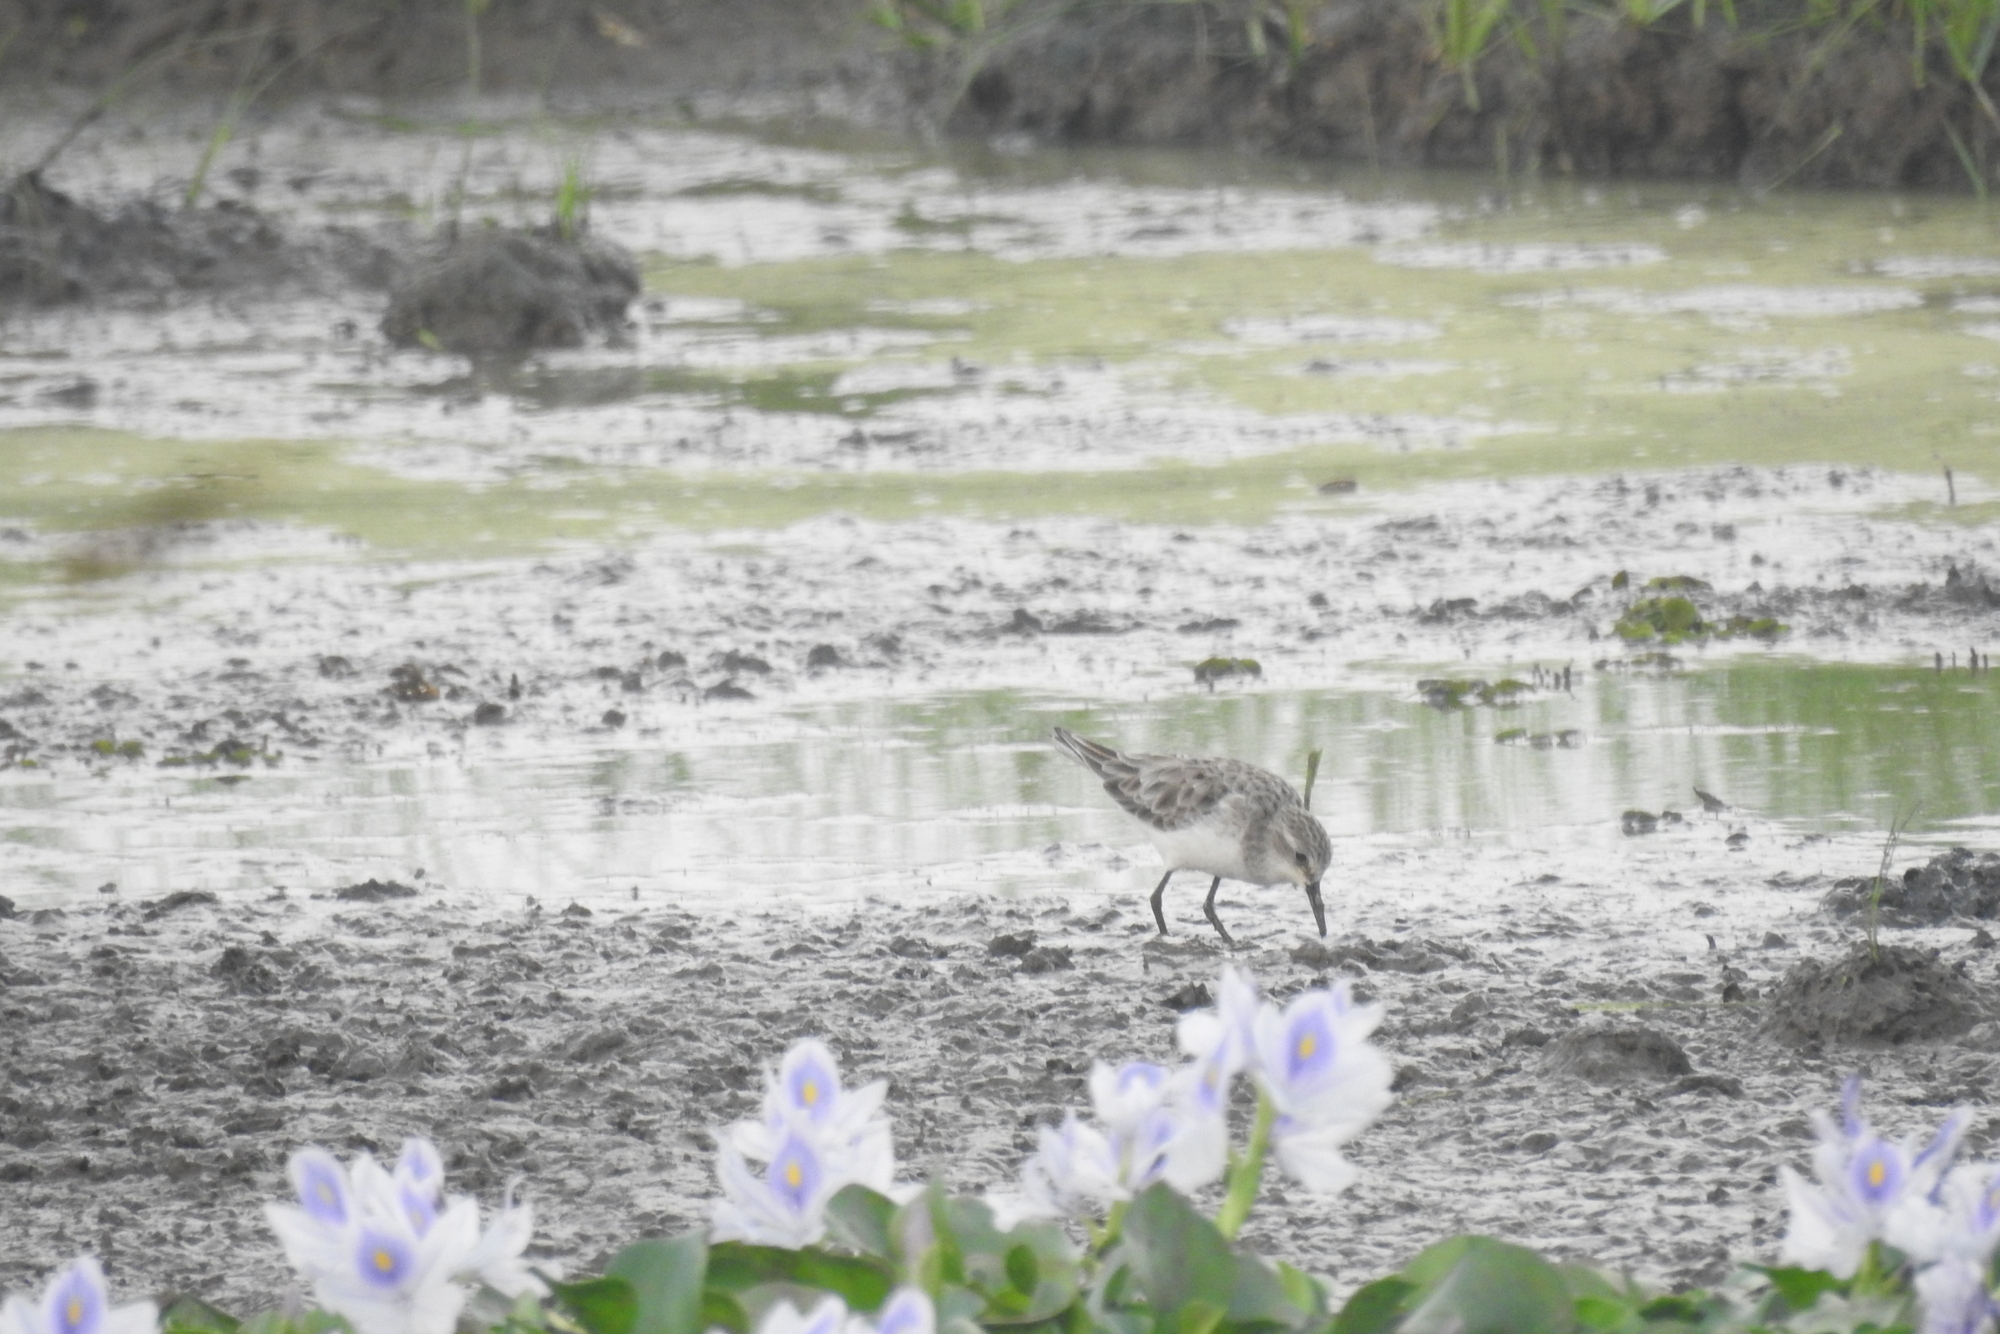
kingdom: Animalia
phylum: Chordata
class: Aves
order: Charadriiformes
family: Scolopacidae
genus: Calidris
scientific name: Calidris minuta
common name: Little stint
